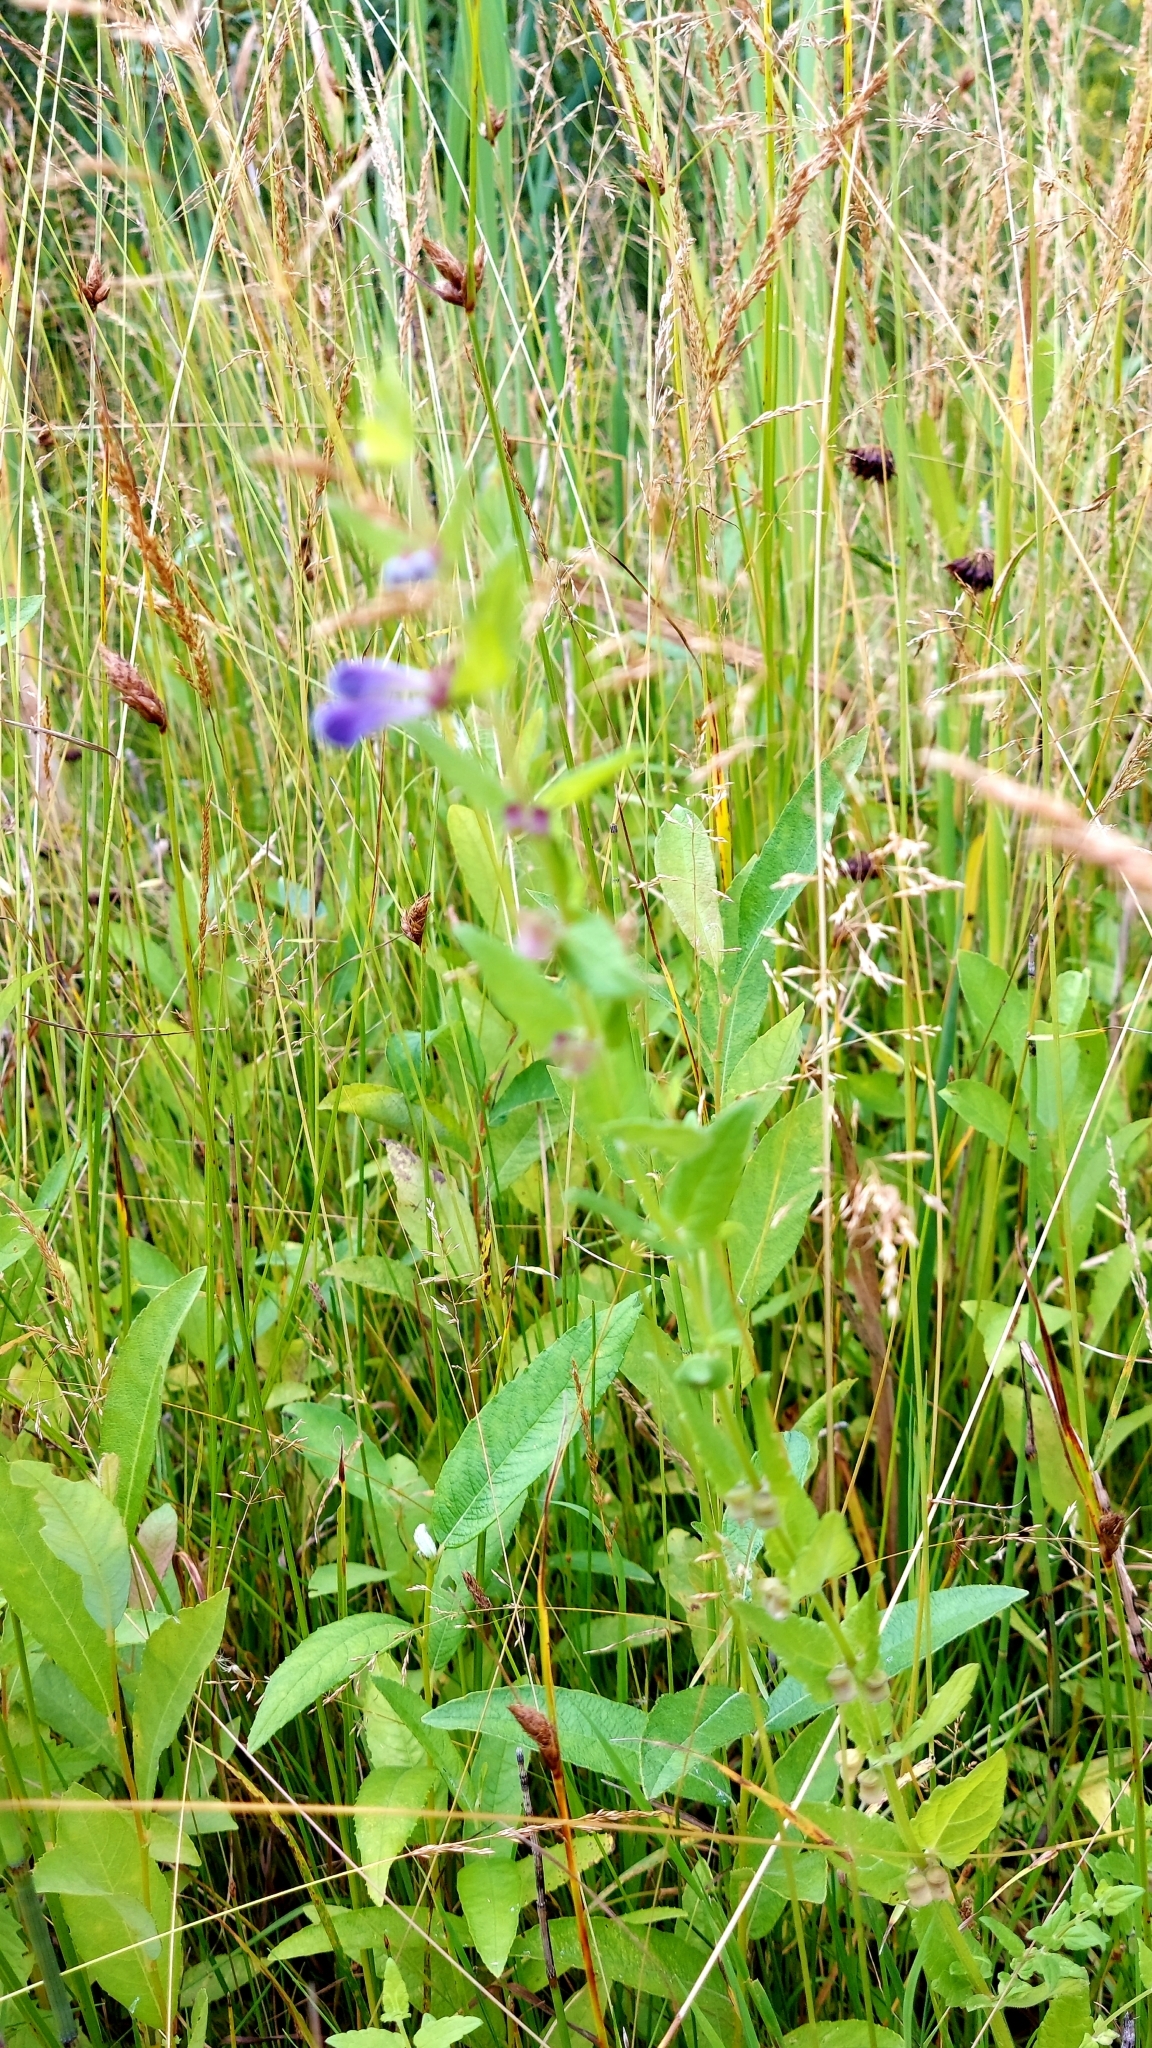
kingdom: Plantae
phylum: Tracheophyta
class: Magnoliopsida
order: Lamiales
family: Lamiaceae
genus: Scutellaria
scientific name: Scutellaria galericulata
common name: Skullcap
